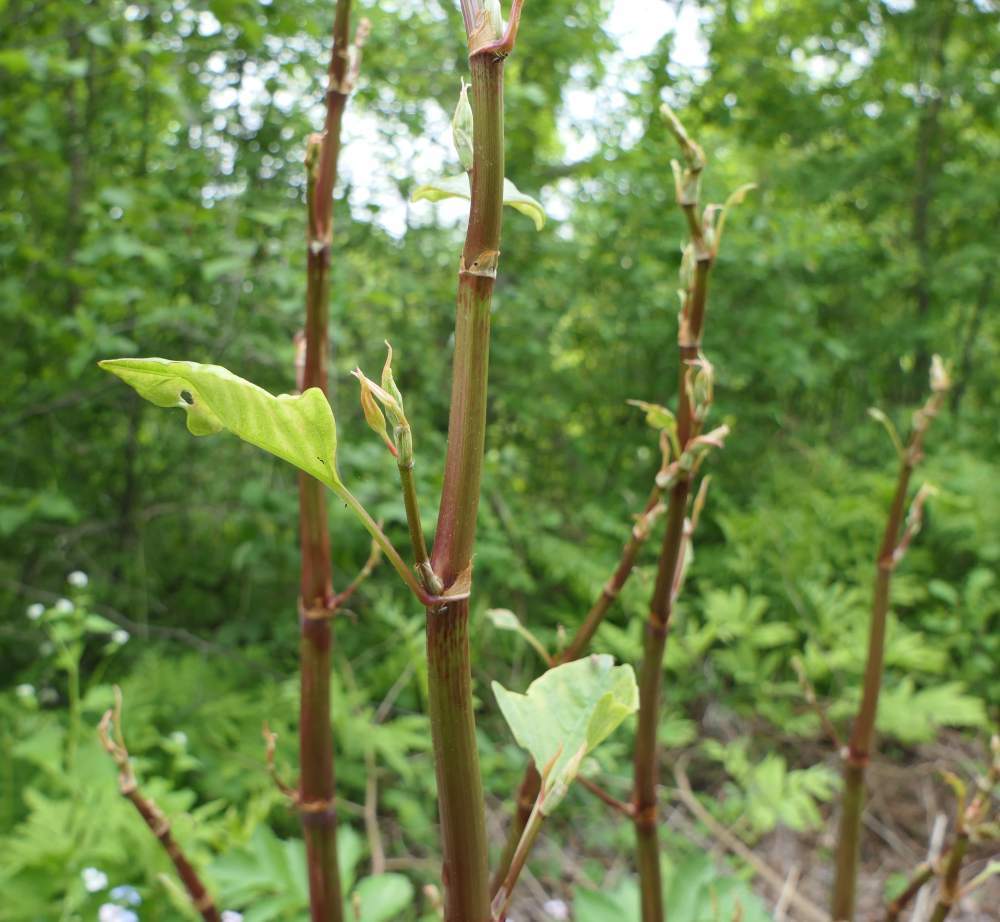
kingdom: Plantae
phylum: Tracheophyta
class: Magnoliopsida
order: Caryophyllales
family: Polygonaceae
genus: Reynoutria
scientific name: Reynoutria japonica
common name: Japanese knotweed
